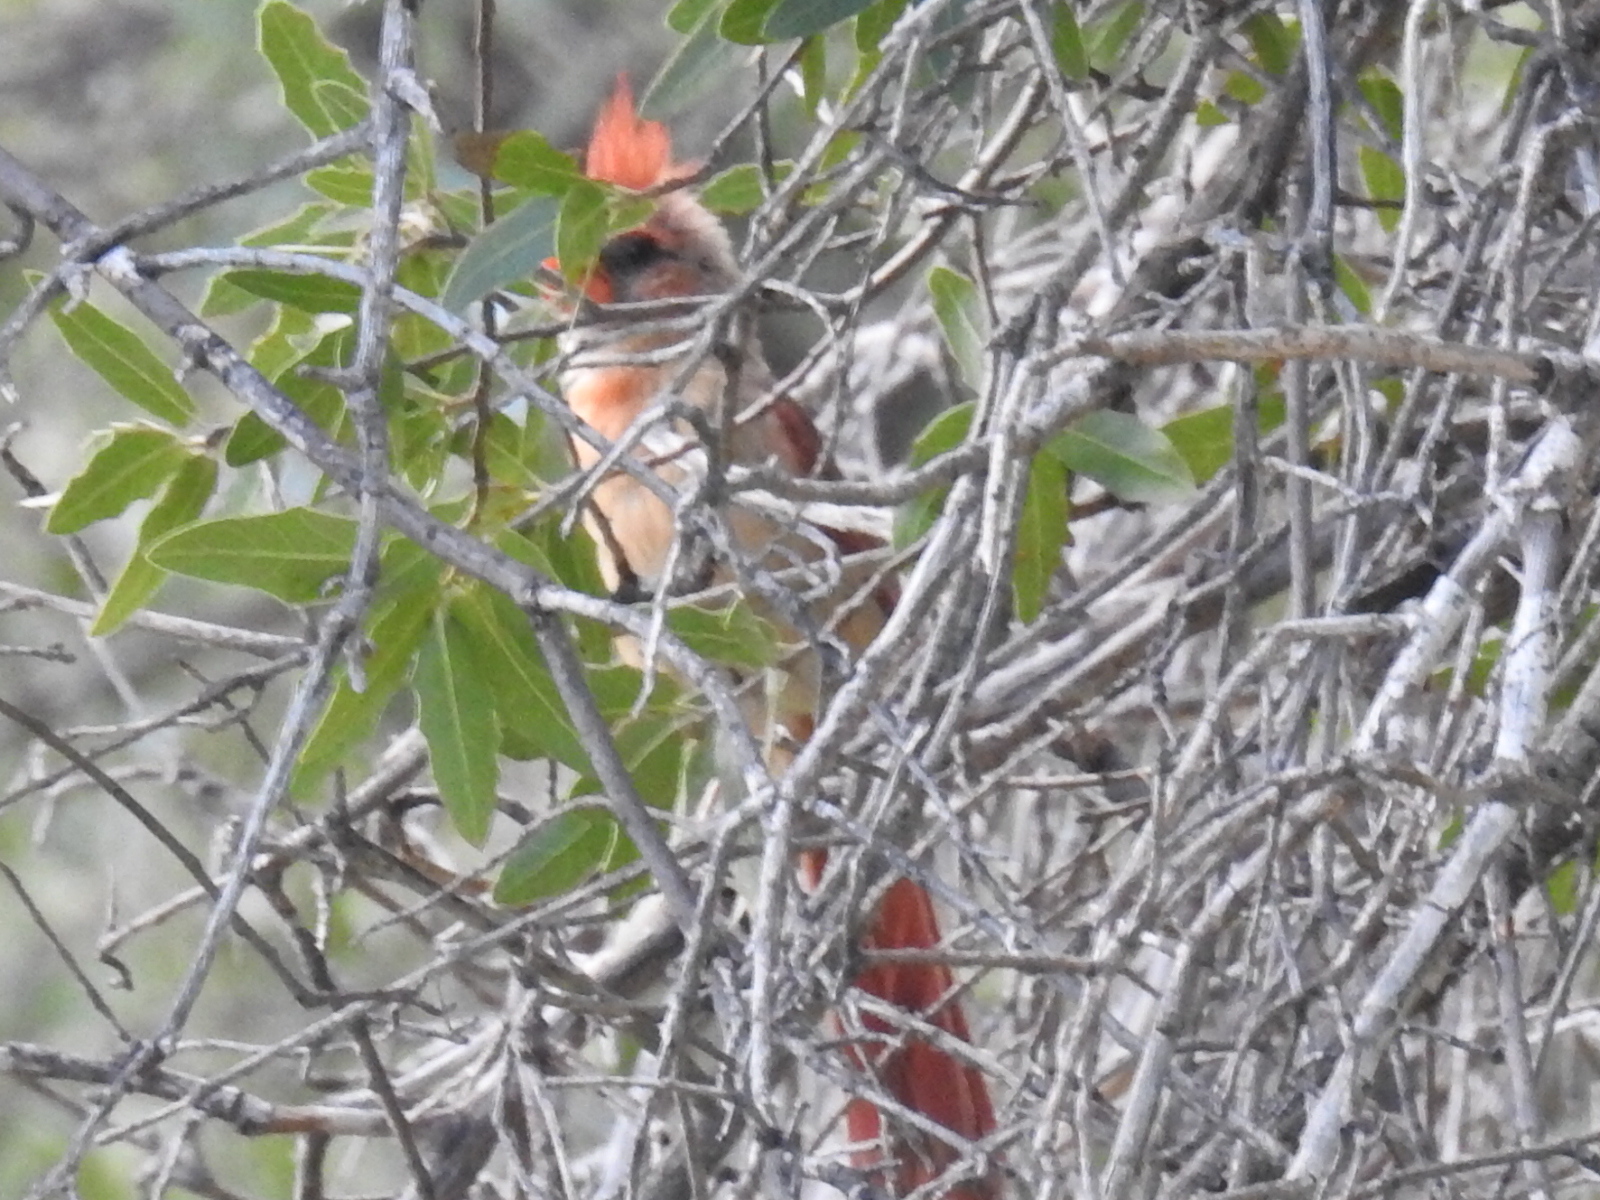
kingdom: Animalia
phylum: Chordata
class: Aves
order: Passeriformes
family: Cardinalidae
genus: Cardinalis
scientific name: Cardinalis cardinalis
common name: Northern cardinal
